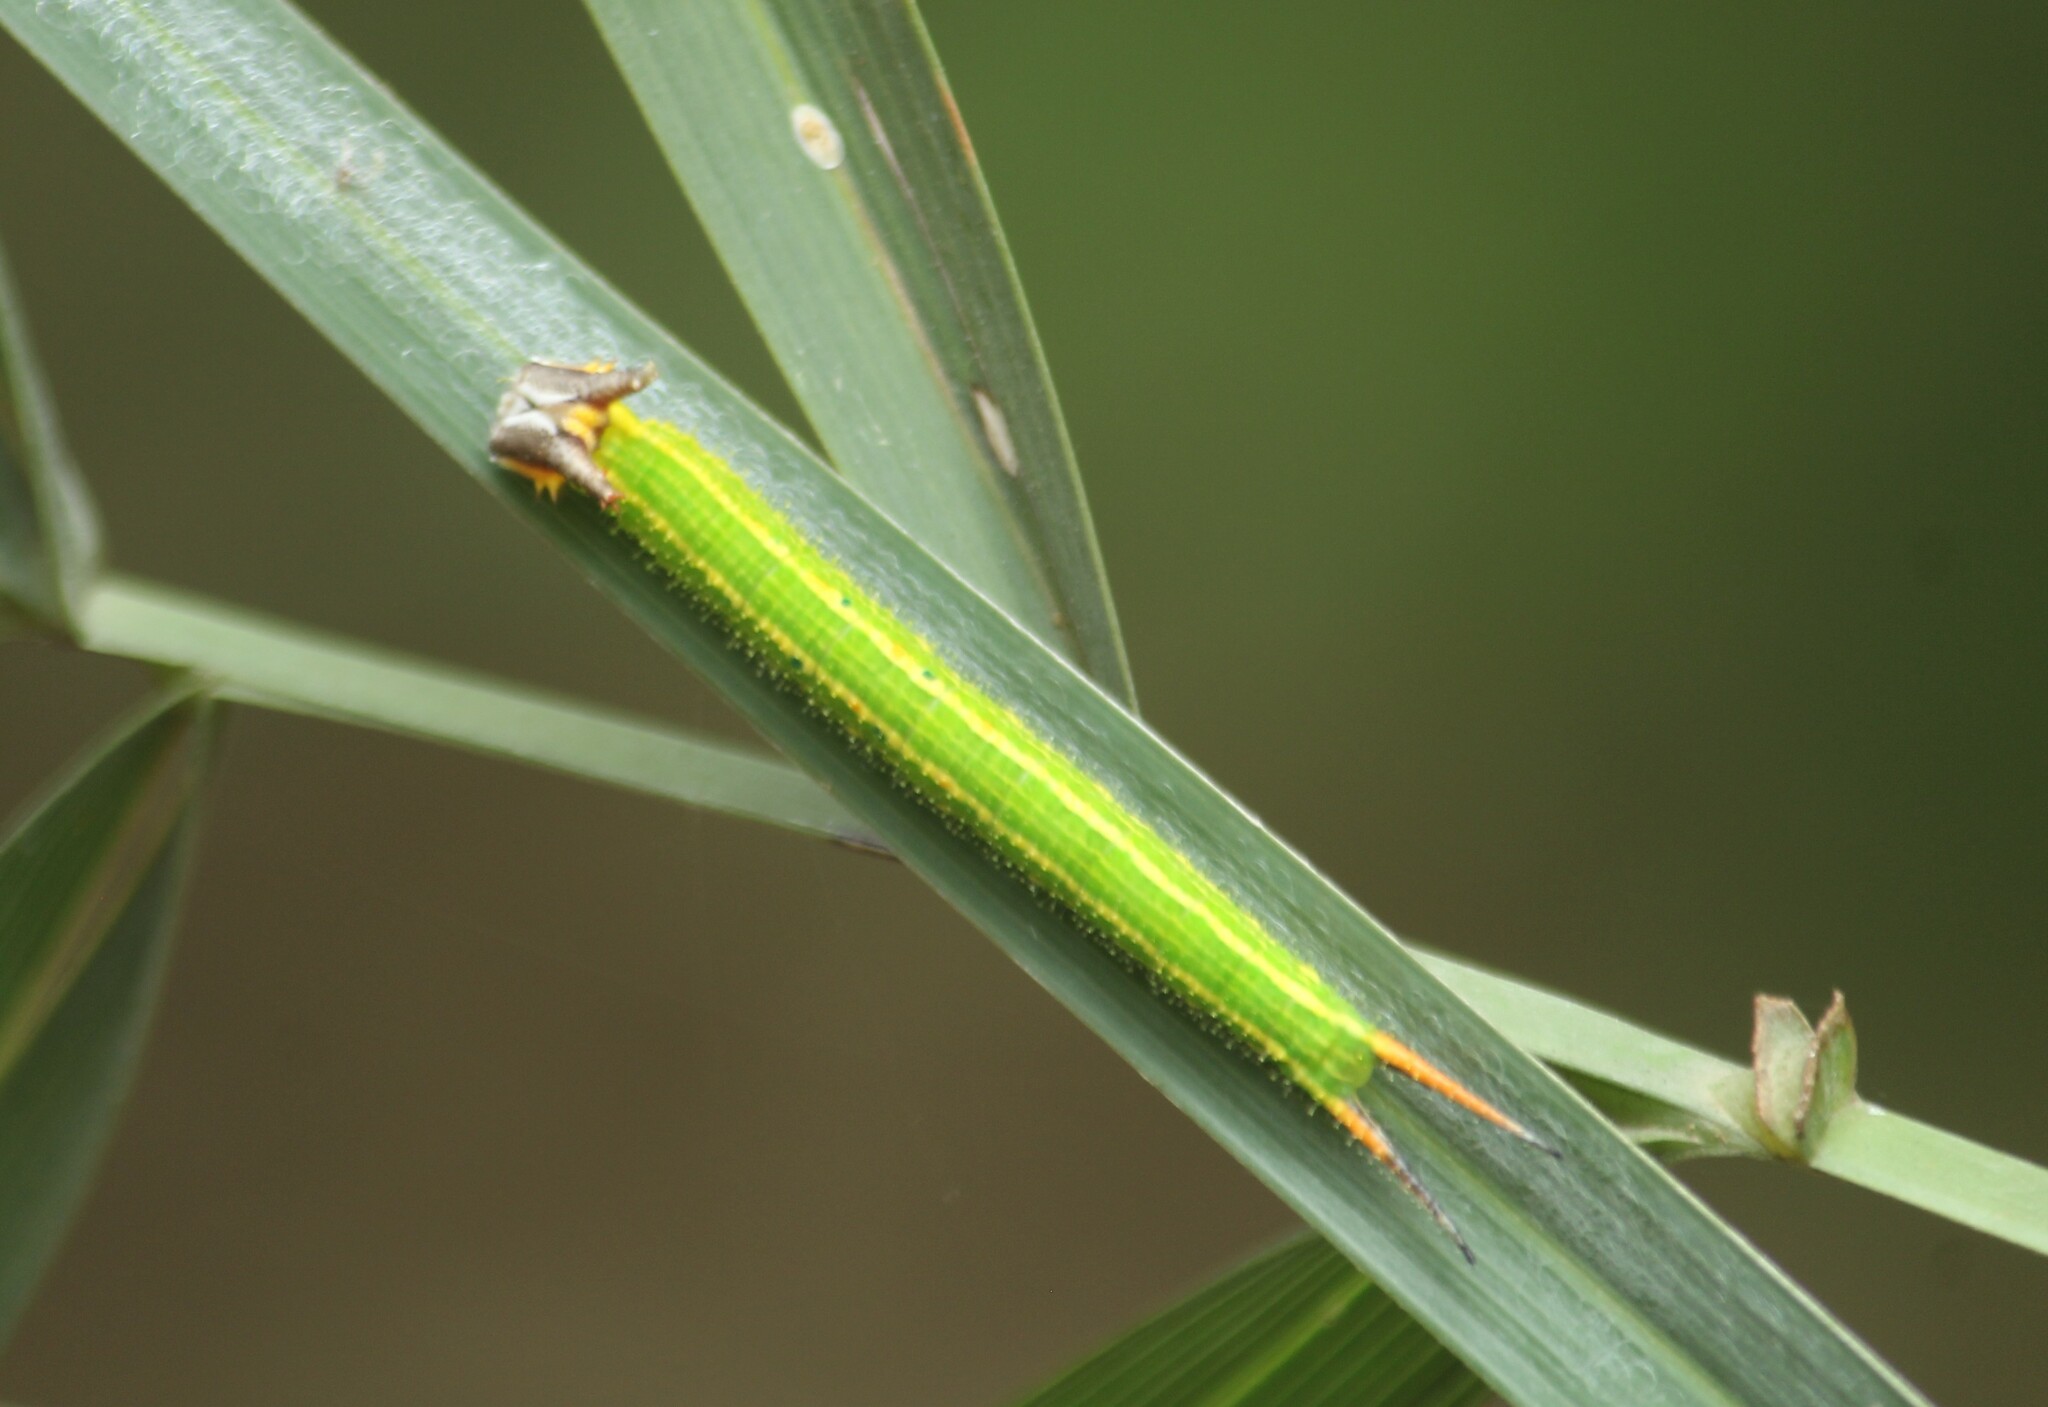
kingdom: Animalia
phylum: Arthropoda
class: Insecta
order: Lepidoptera
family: Nymphalidae
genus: Elymnias
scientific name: Elymnias caudata
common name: Tailed palmfly
